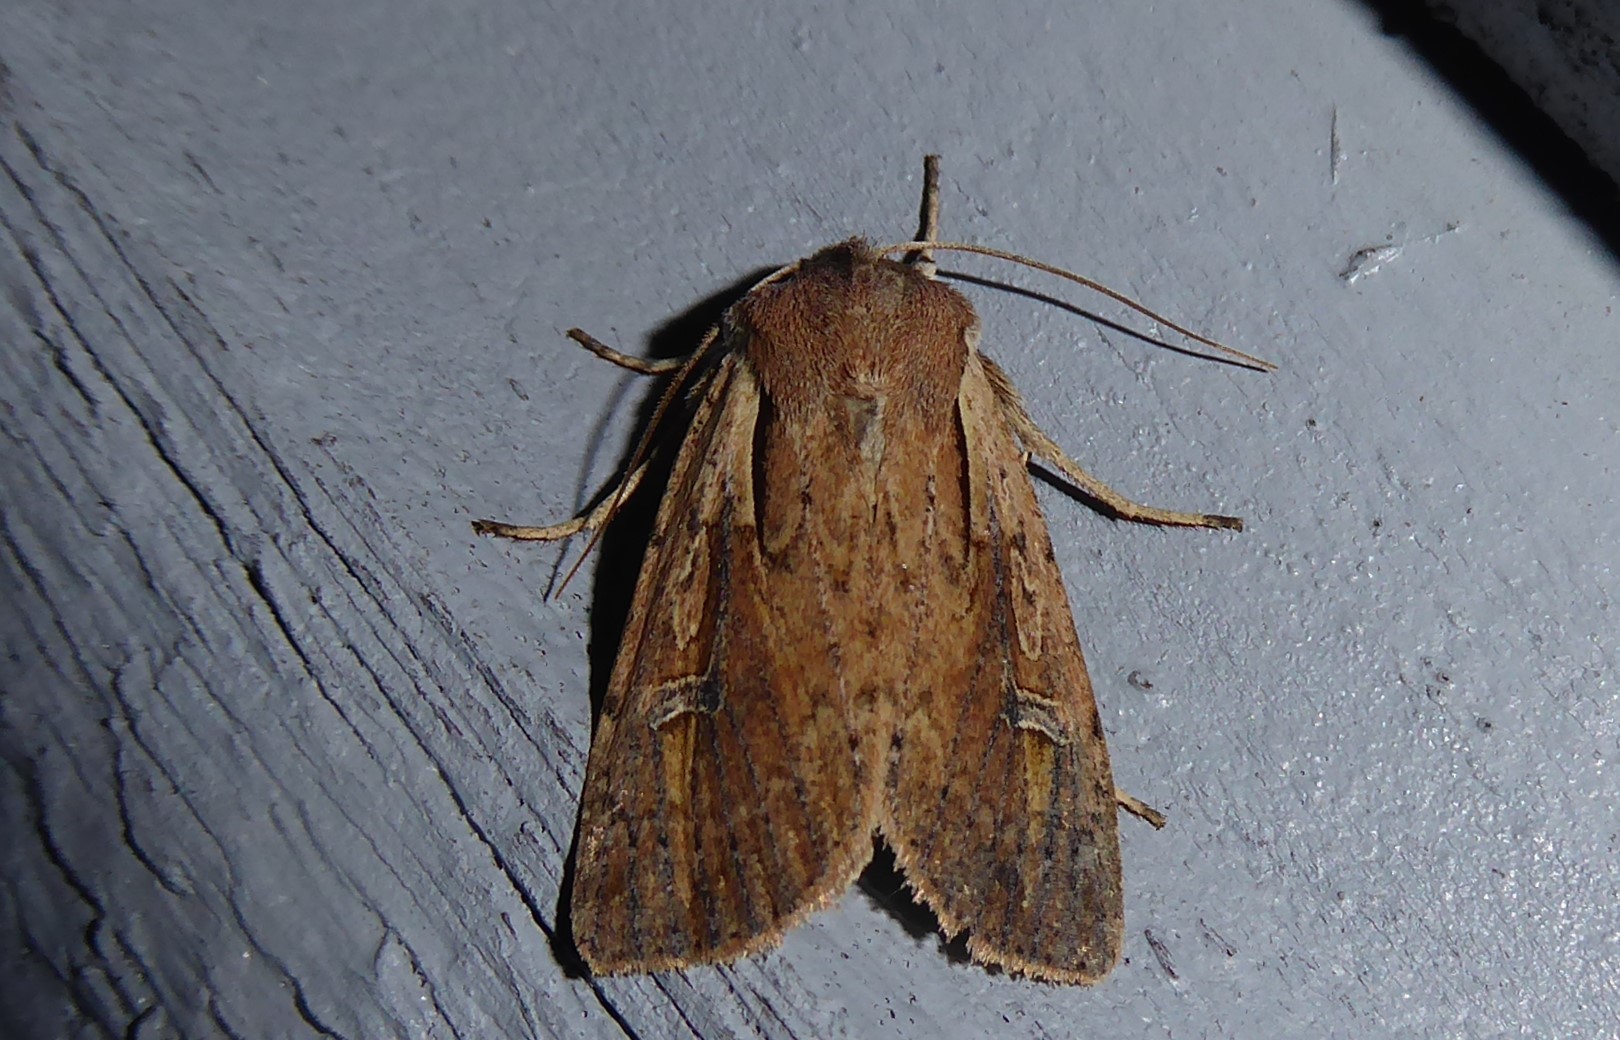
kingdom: Animalia
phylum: Arthropoda
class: Insecta
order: Lepidoptera
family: Noctuidae
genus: Ichneutica
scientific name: Ichneutica atristriga
